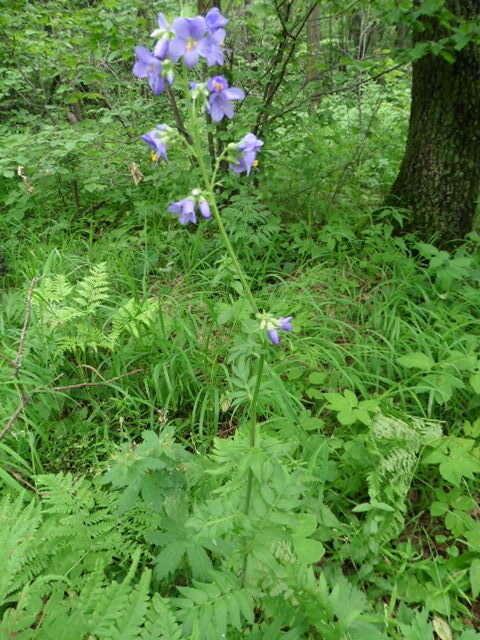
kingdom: Plantae
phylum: Tracheophyta
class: Magnoliopsida
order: Ericales
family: Polemoniaceae
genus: Polemonium
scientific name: Polemonium caeruleum
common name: Jacob's-ladder
